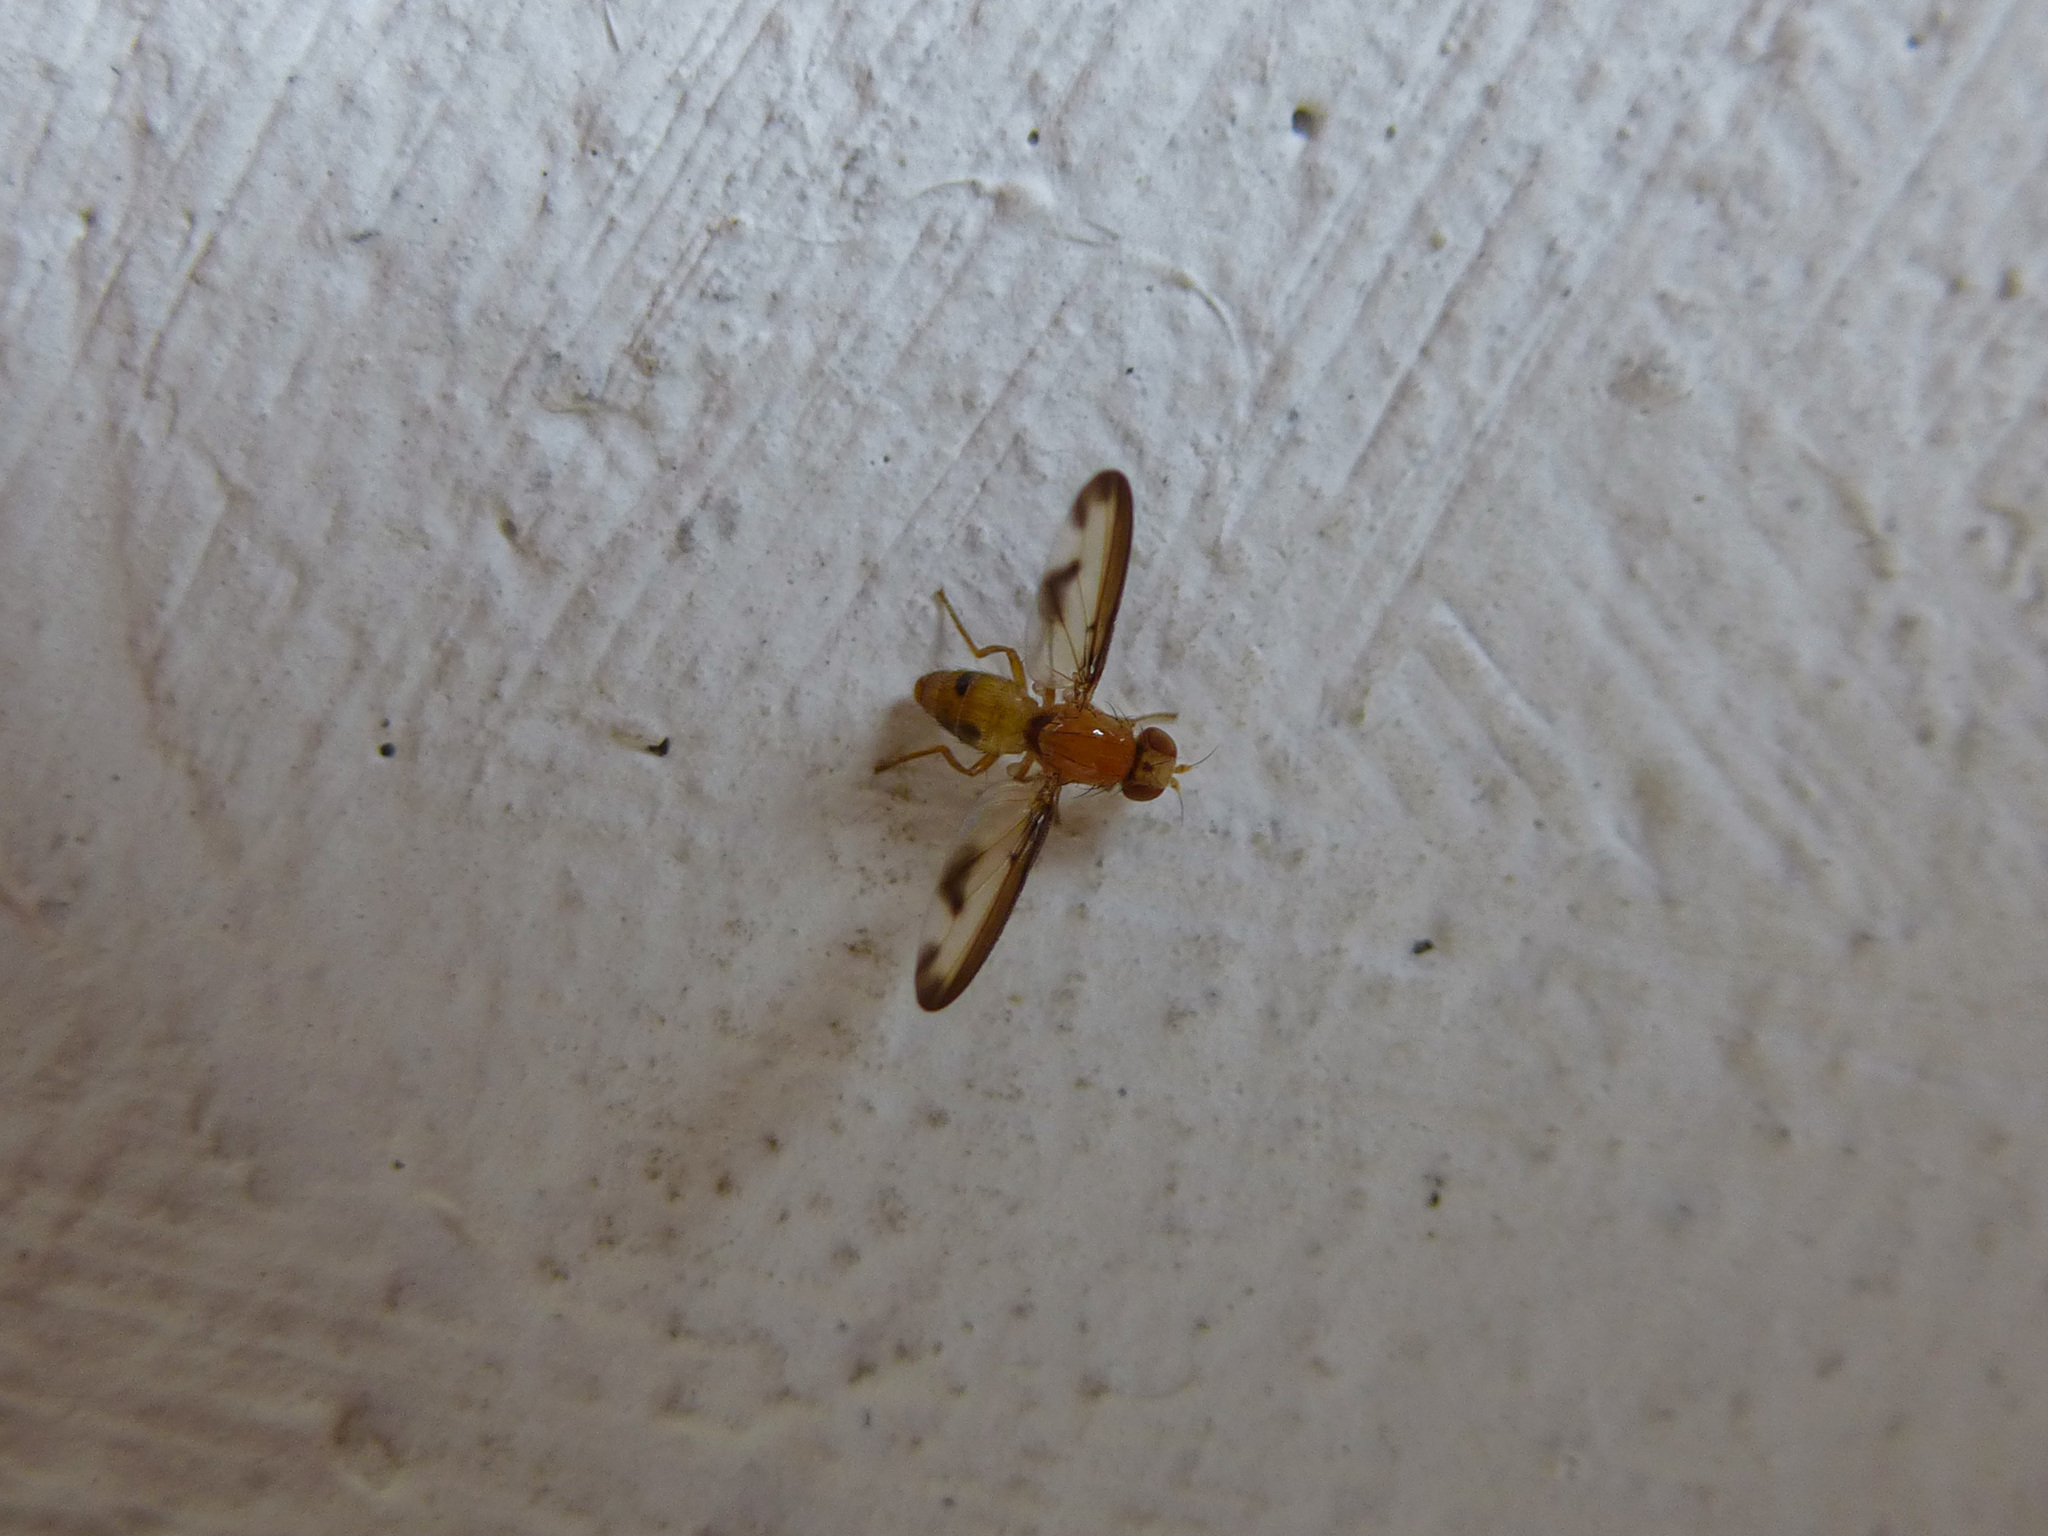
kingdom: Animalia
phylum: Arthropoda
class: Insecta
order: Diptera
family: Pallopteridae
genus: Palloptera
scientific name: Palloptera laetabilis
